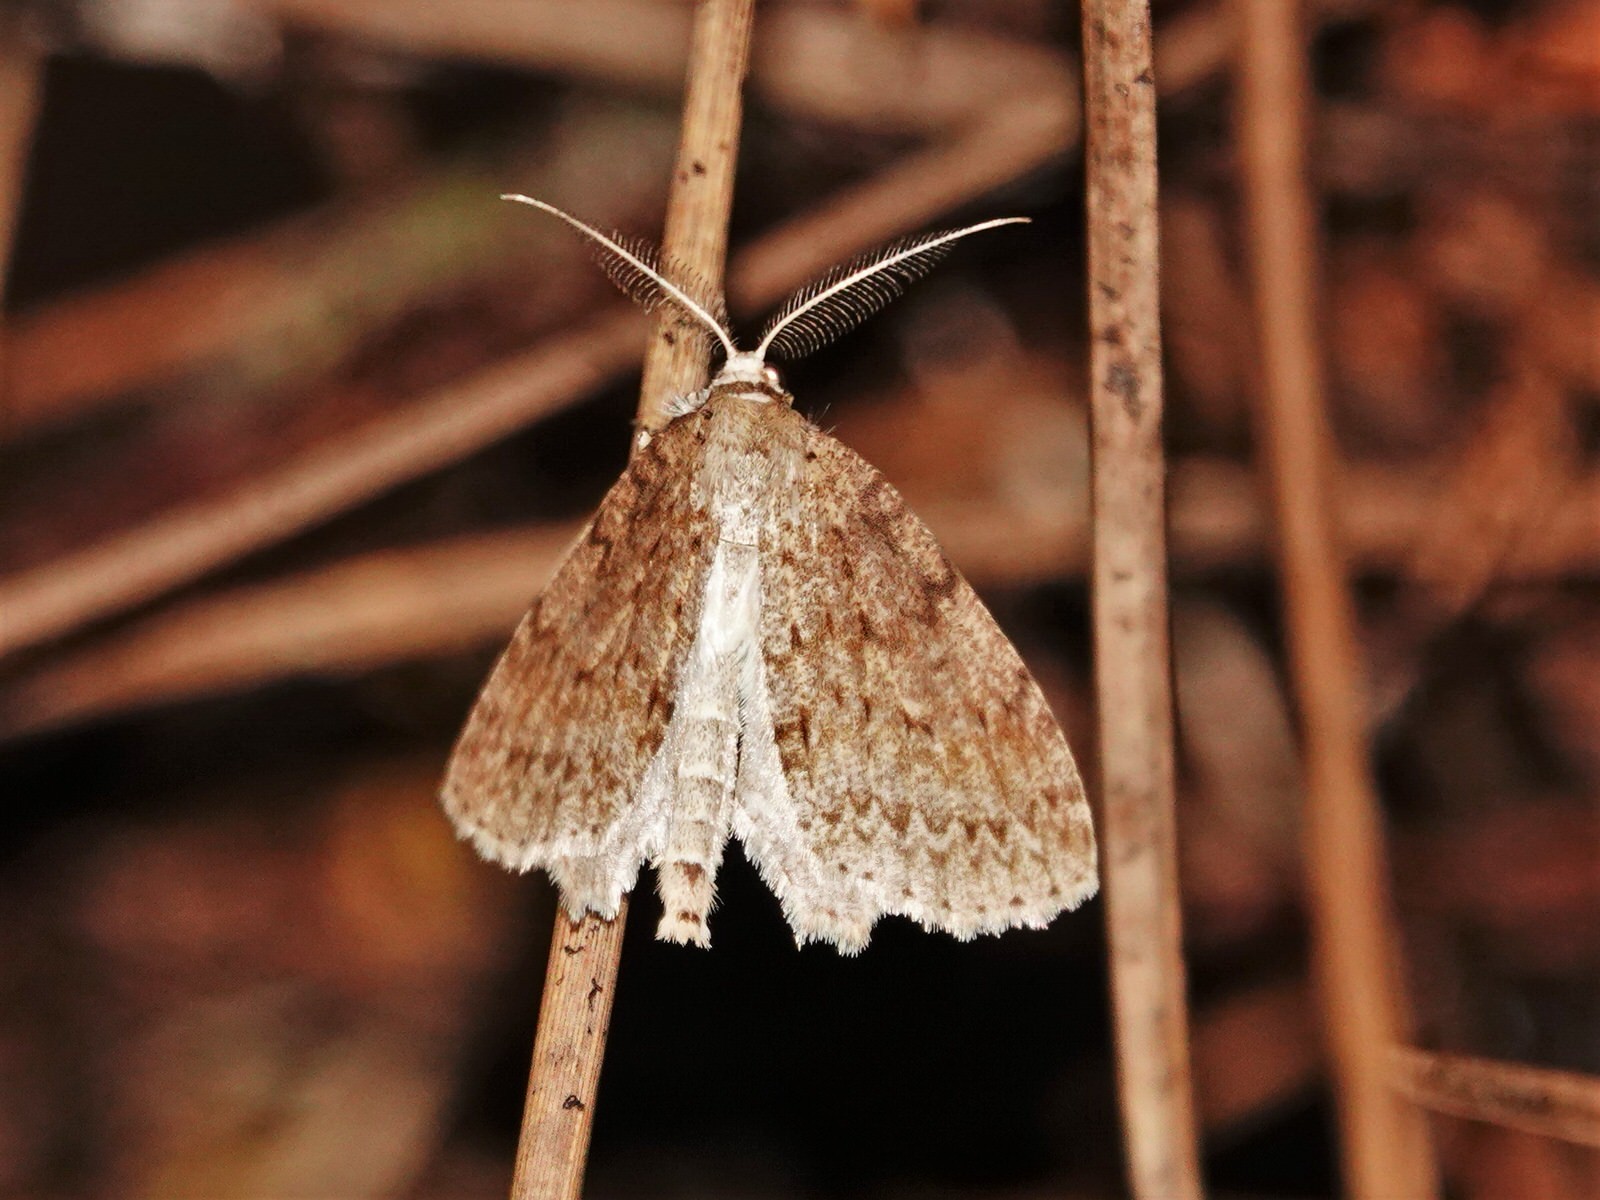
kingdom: Animalia
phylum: Arthropoda
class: Insecta
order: Lepidoptera
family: Geometridae
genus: Pseudocoremia
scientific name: Pseudocoremia fenerata
